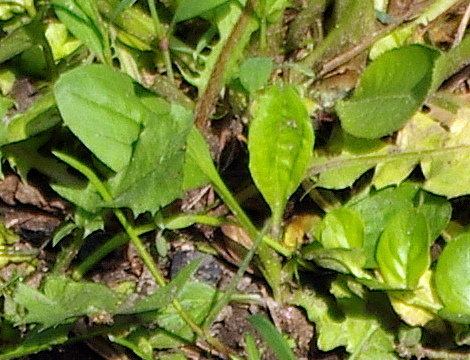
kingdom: Plantae
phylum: Tracheophyta
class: Magnoliopsida
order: Lamiales
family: Plantaginaceae
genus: Plantago
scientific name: Plantago major
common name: Common plantain
